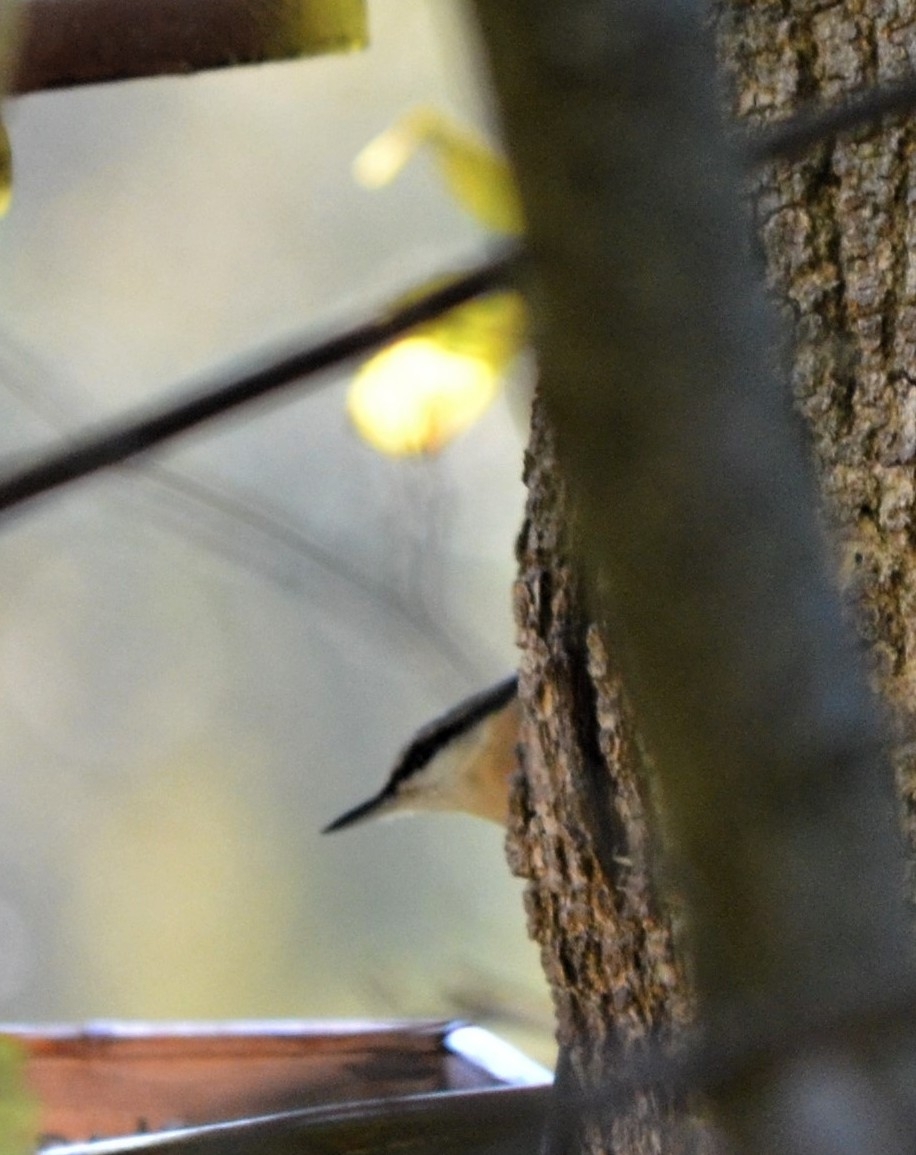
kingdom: Animalia
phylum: Chordata
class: Aves
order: Passeriformes
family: Sittidae
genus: Sitta
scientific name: Sitta europaea
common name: Eurasian nuthatch
